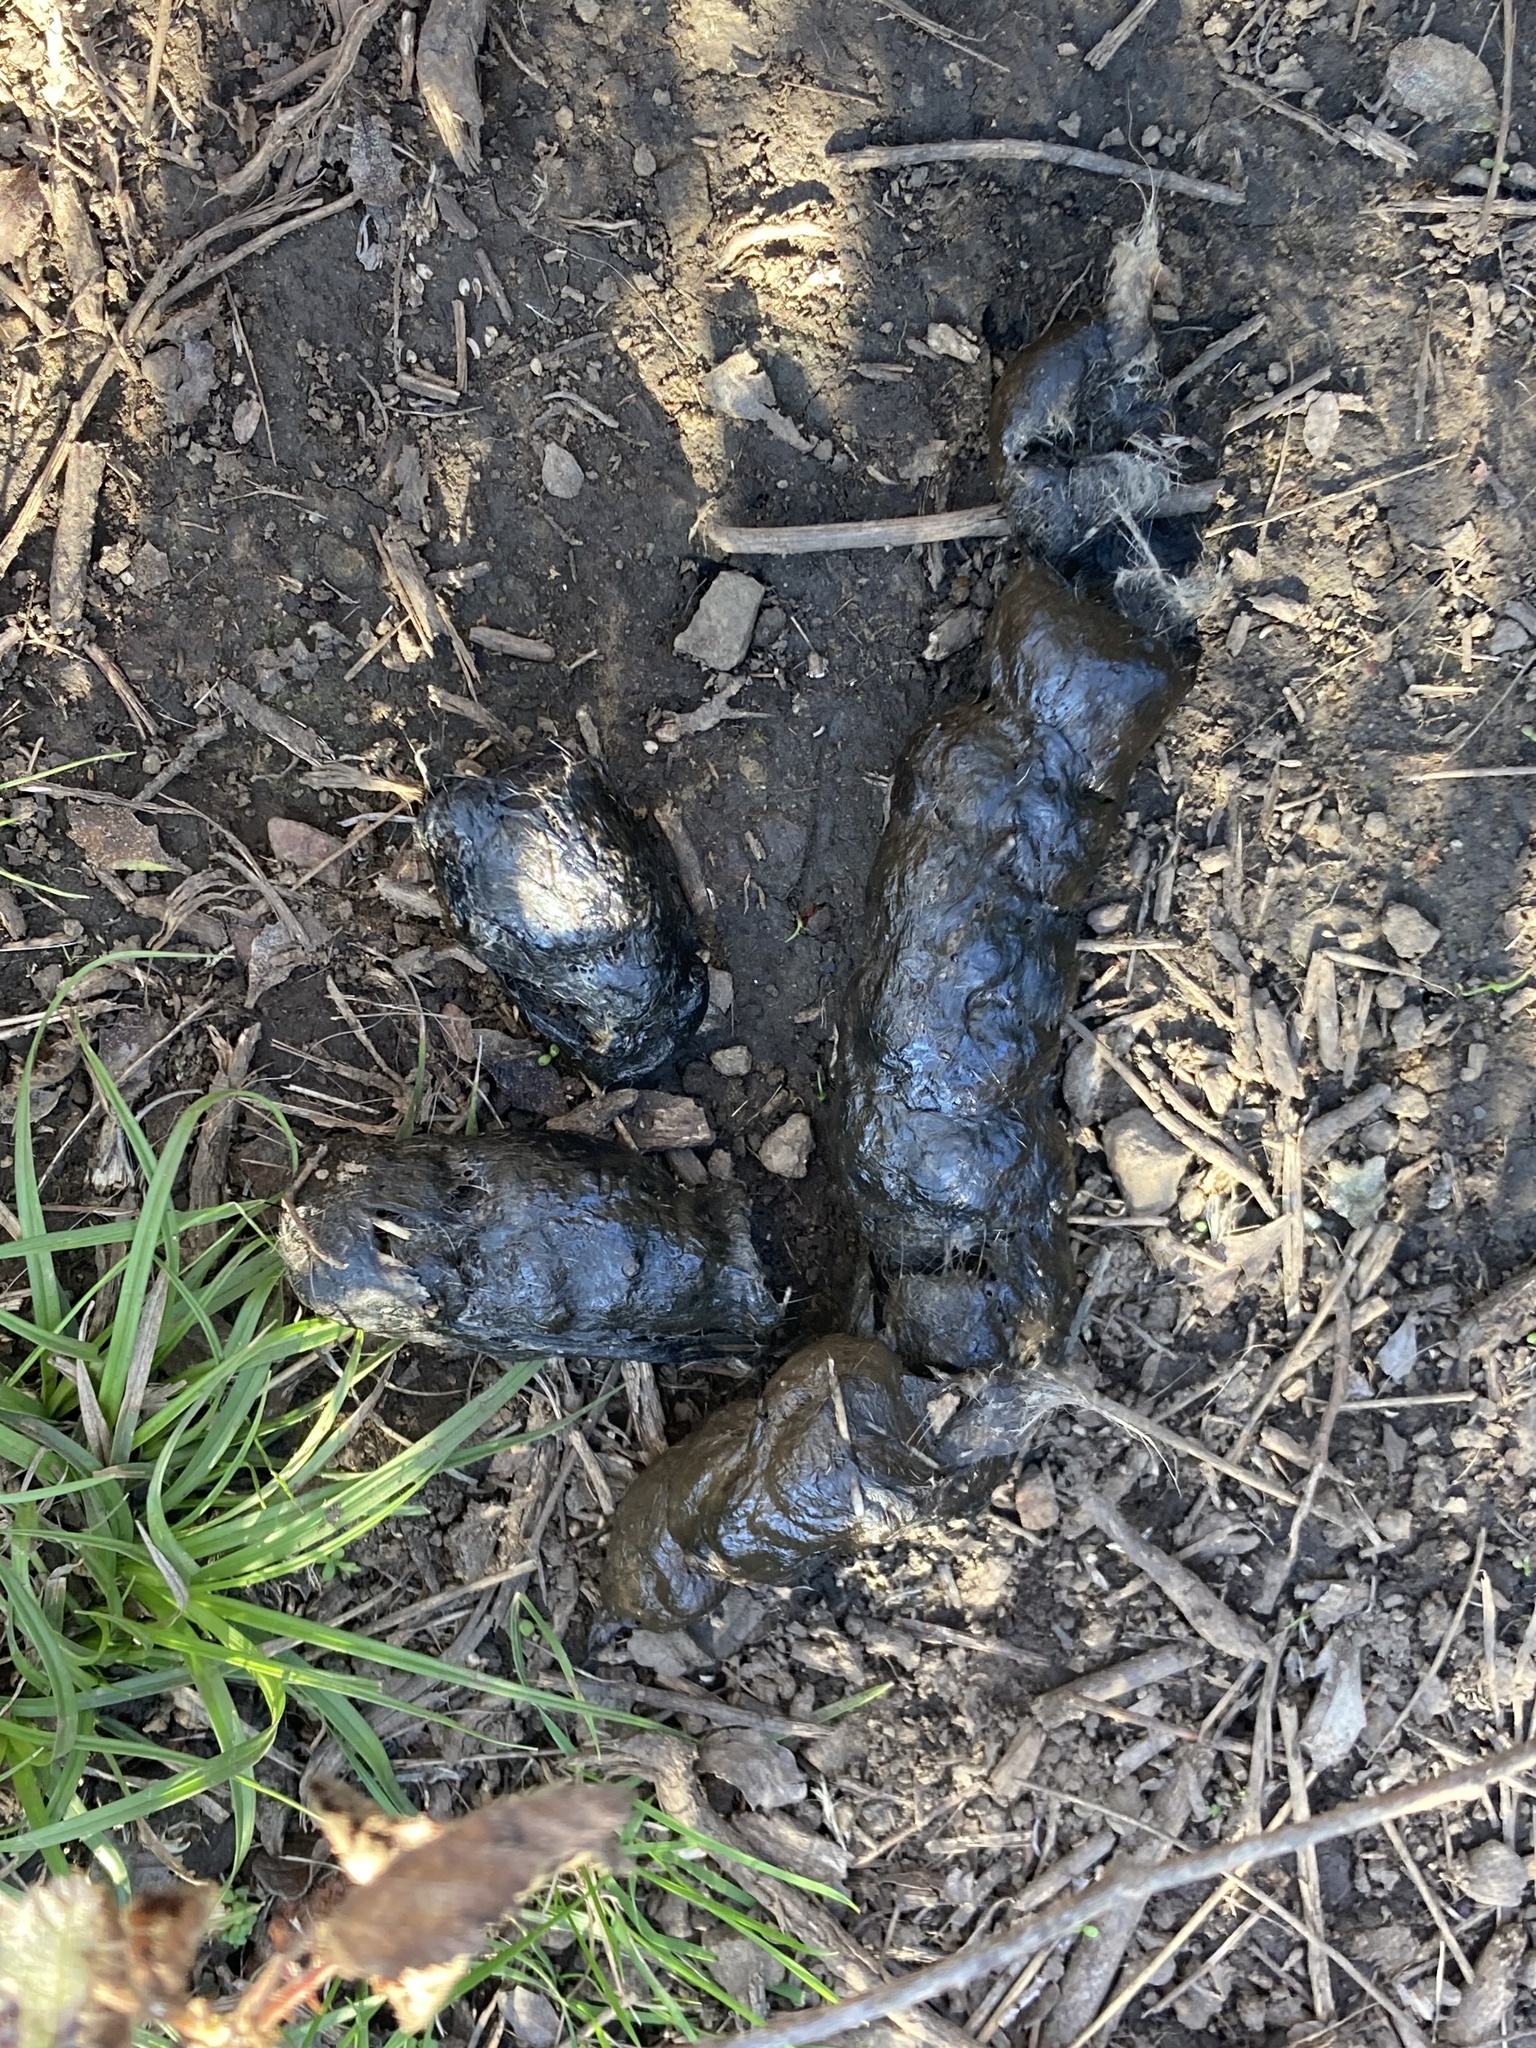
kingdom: Animalia
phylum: Chordata
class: Mammalia
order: Carnivora
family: Felidae
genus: Lynx
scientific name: Lynx rufus
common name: Bobcat
